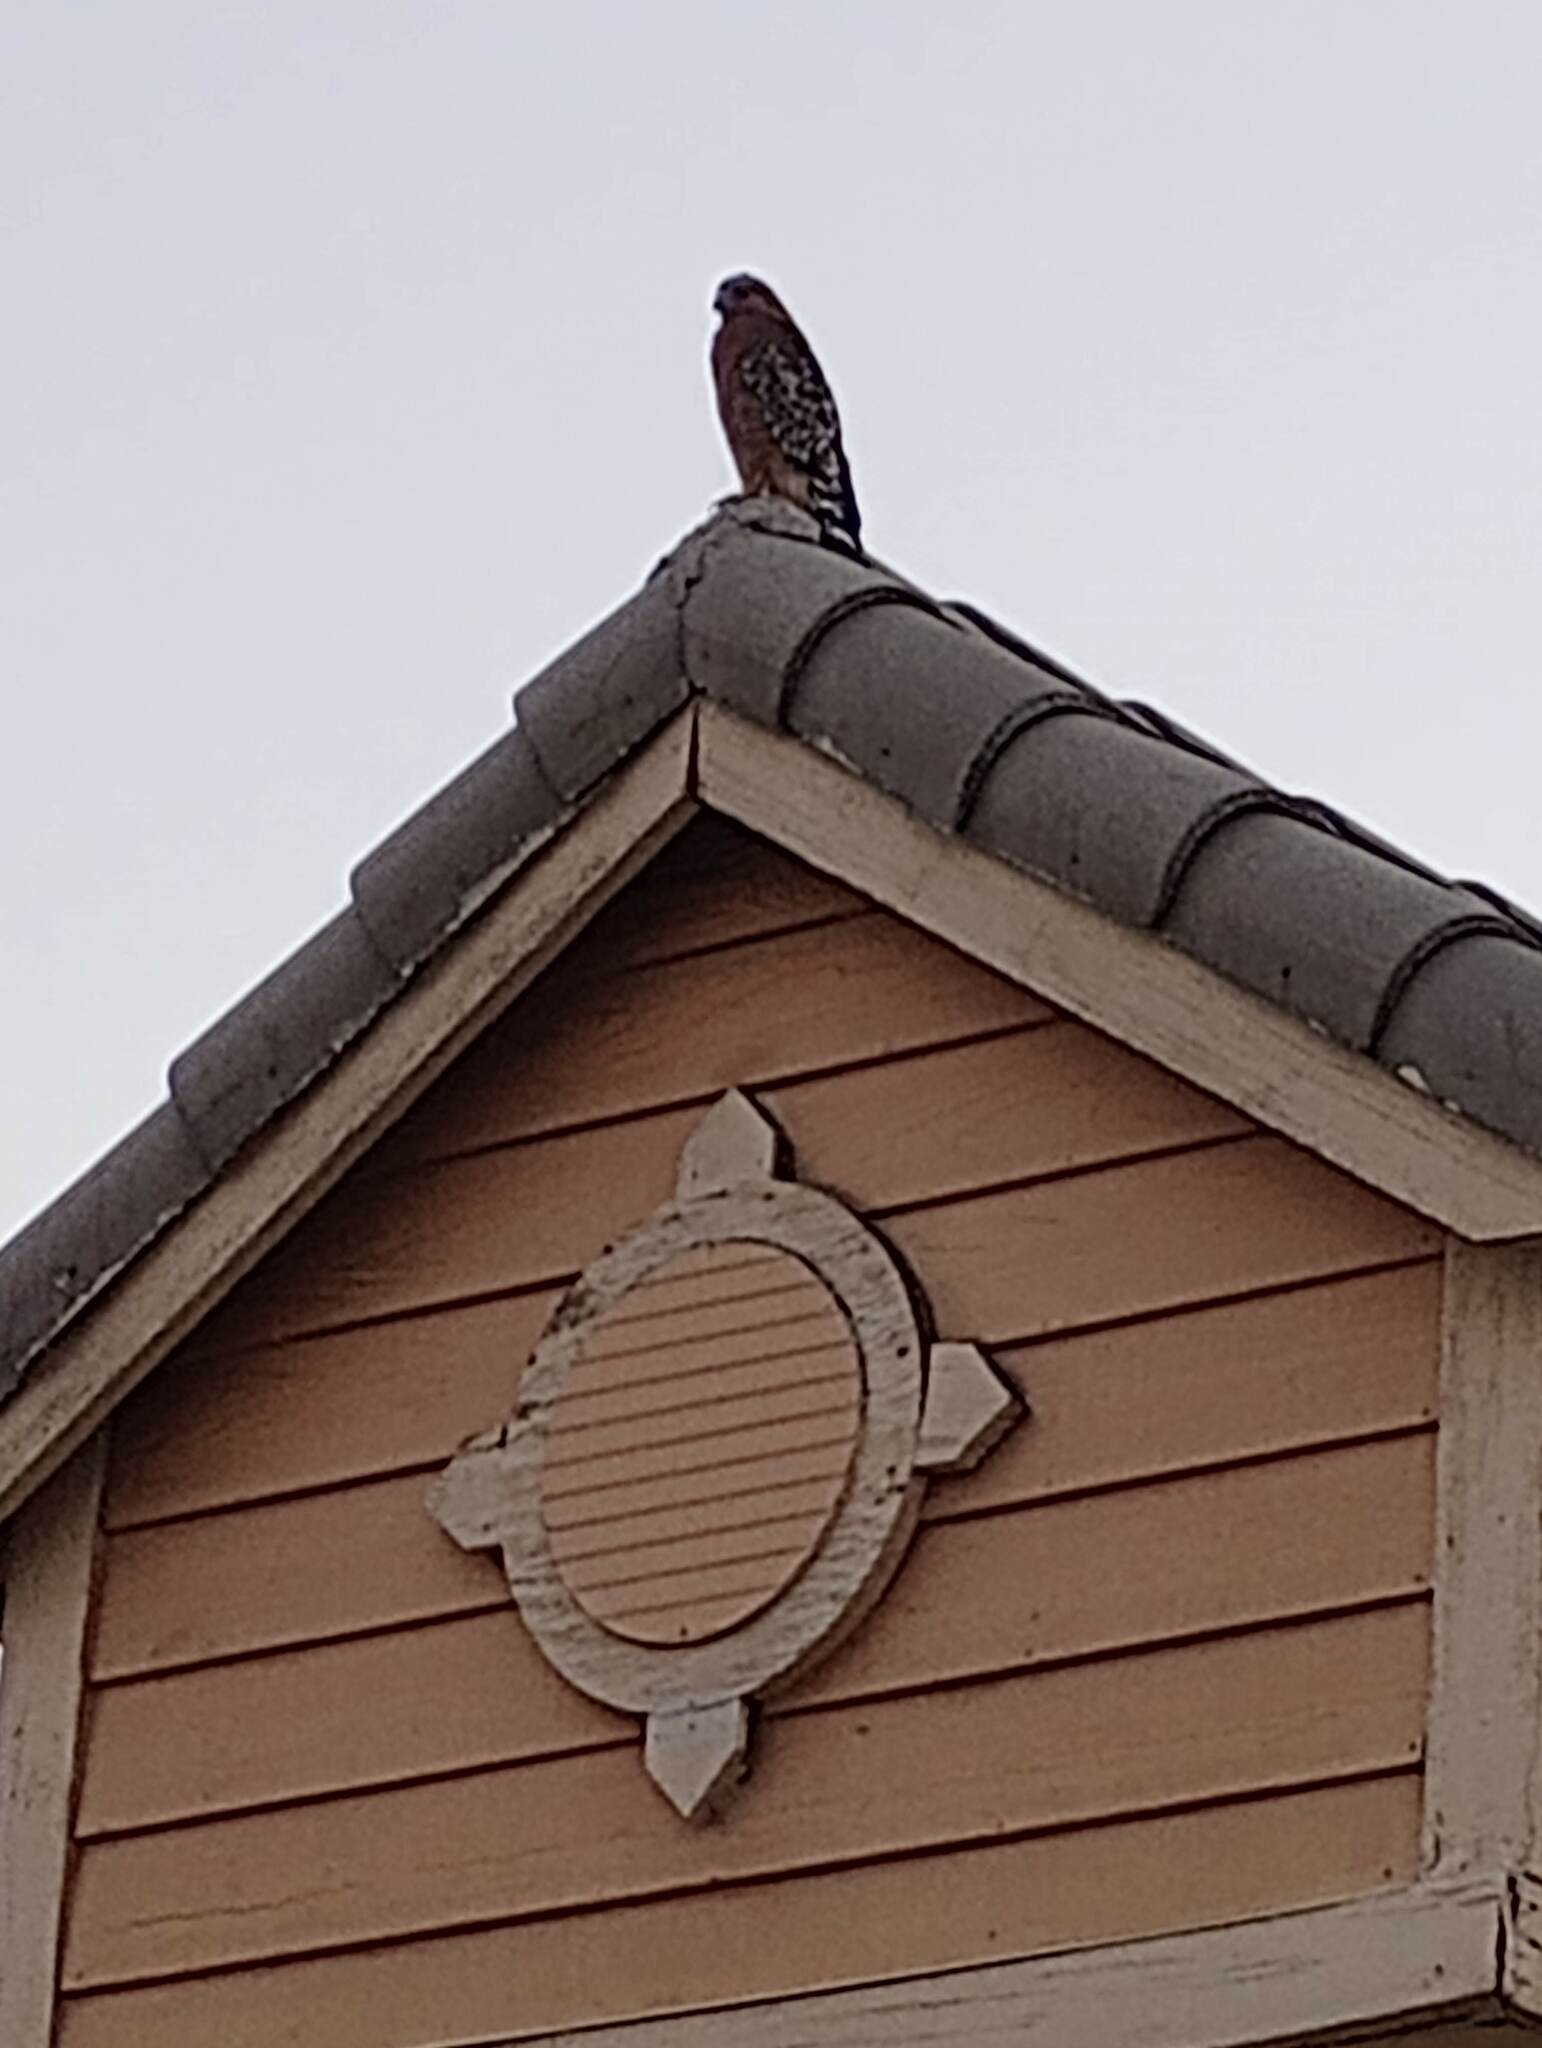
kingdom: Animalia
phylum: Chordata
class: Aves
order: Accipitriformes
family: Accipitridae
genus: Buteo
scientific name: Buteo lineatus
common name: Red-shouldered hawk
